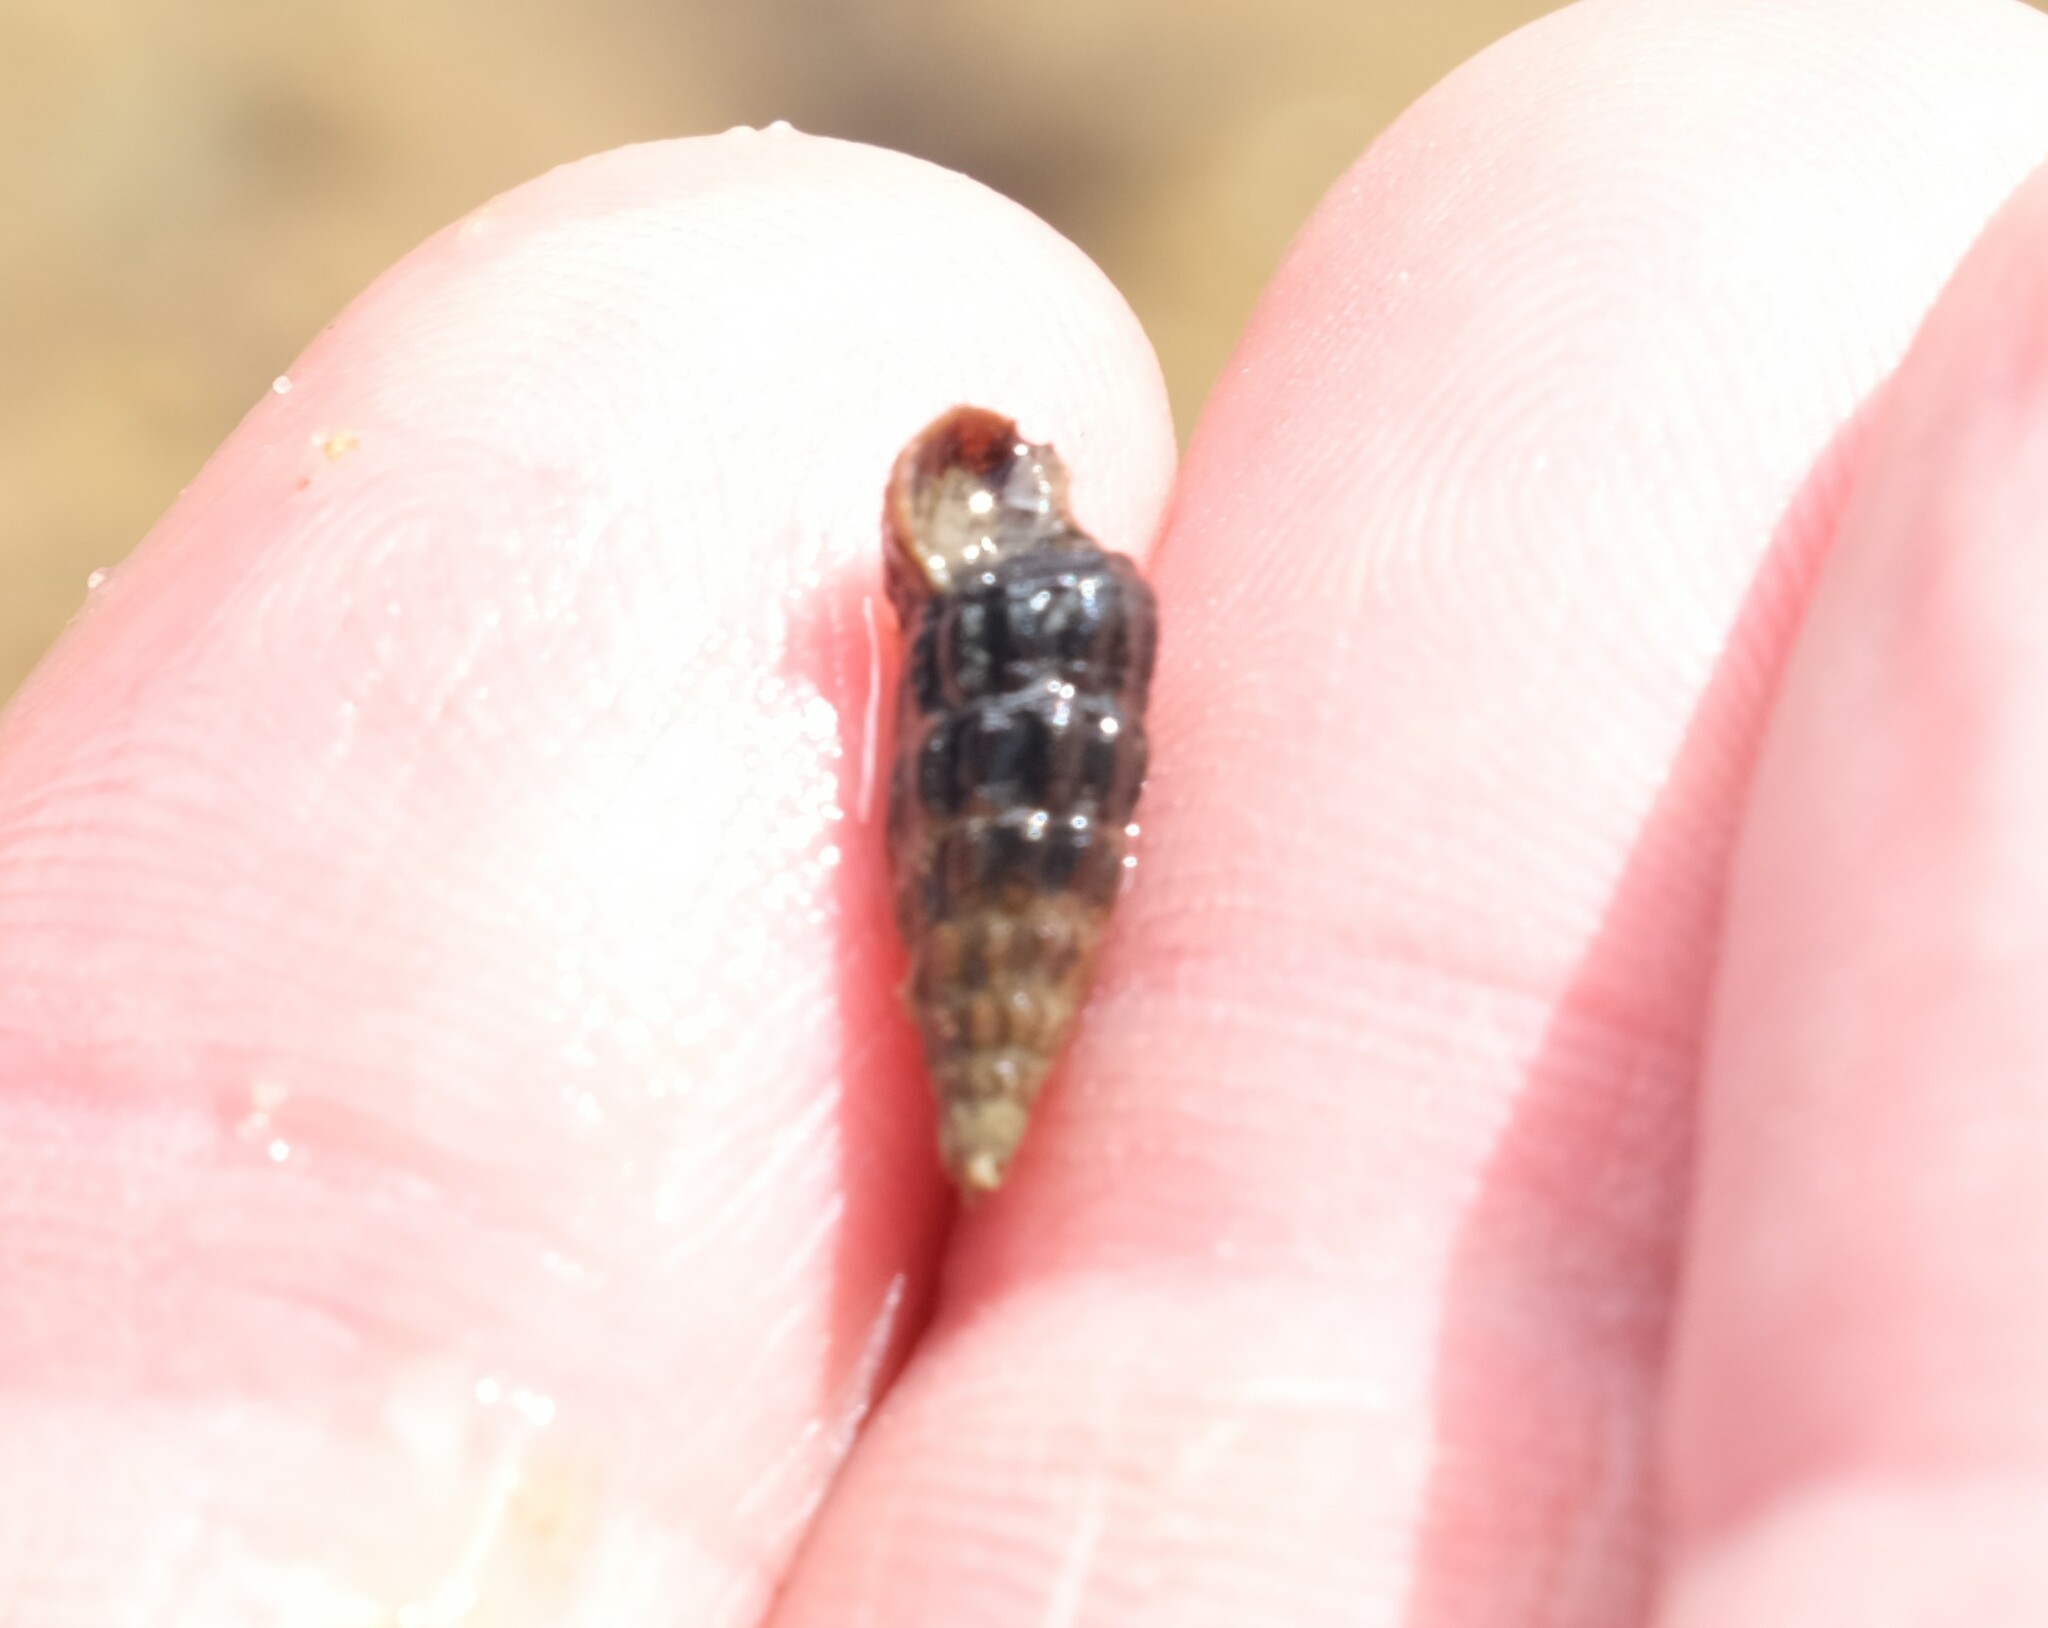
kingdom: Animalia
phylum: Mollusca
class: Gastropoda
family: Batillariidae
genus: Zeacumantus
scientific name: Zeacumantus subcarinatus
